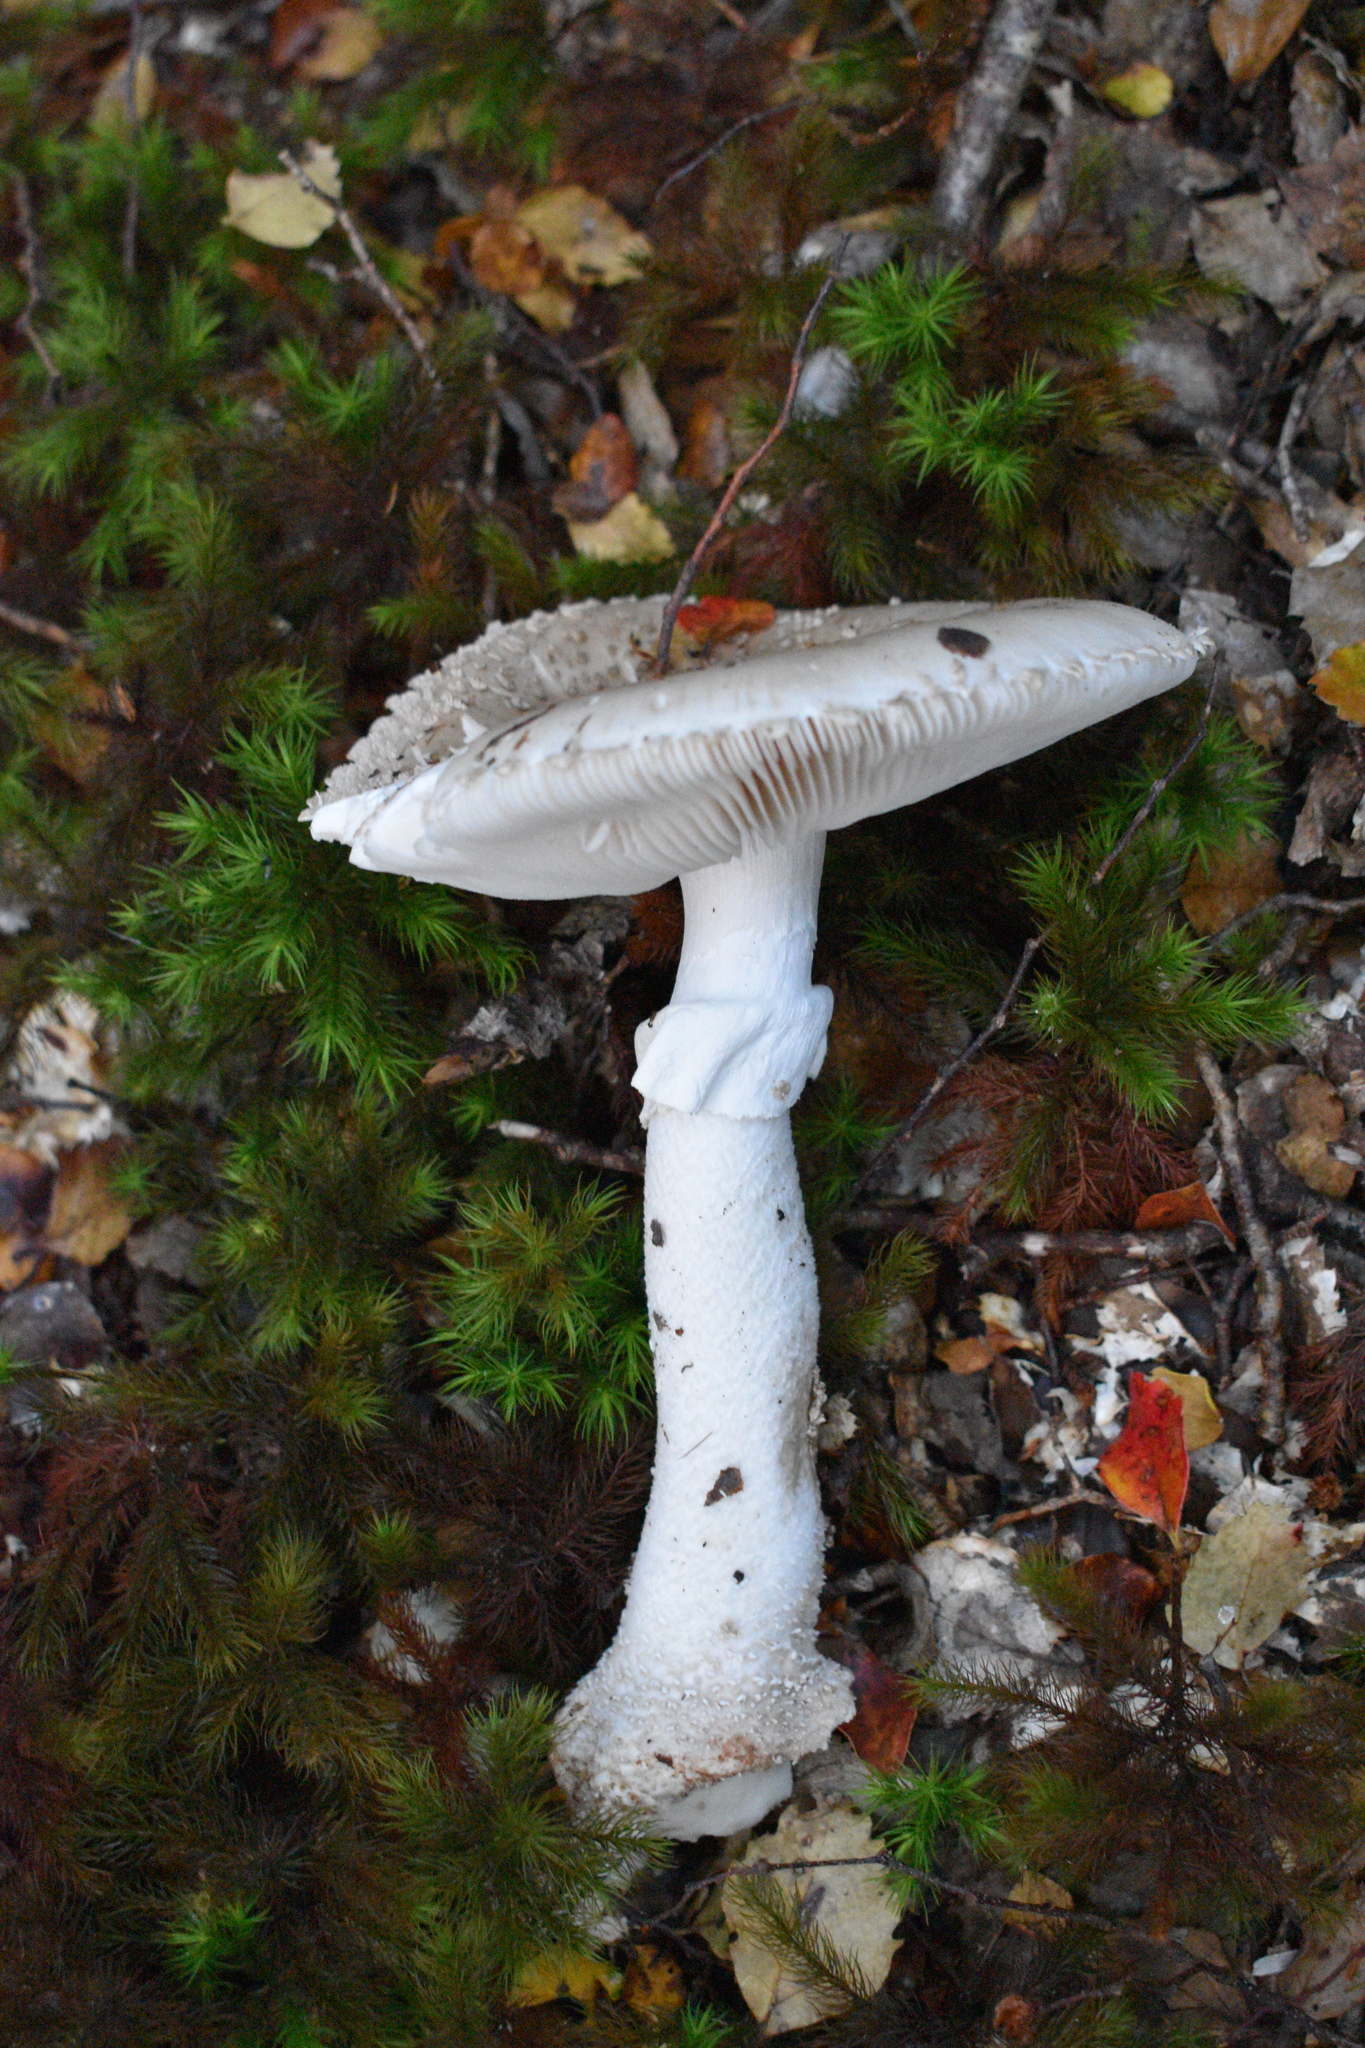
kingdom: Fungi
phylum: Basidiomycota
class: Agaricomycetes
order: Agaricales
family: Amanitaceae
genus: Amanita
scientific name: Amanita australis
